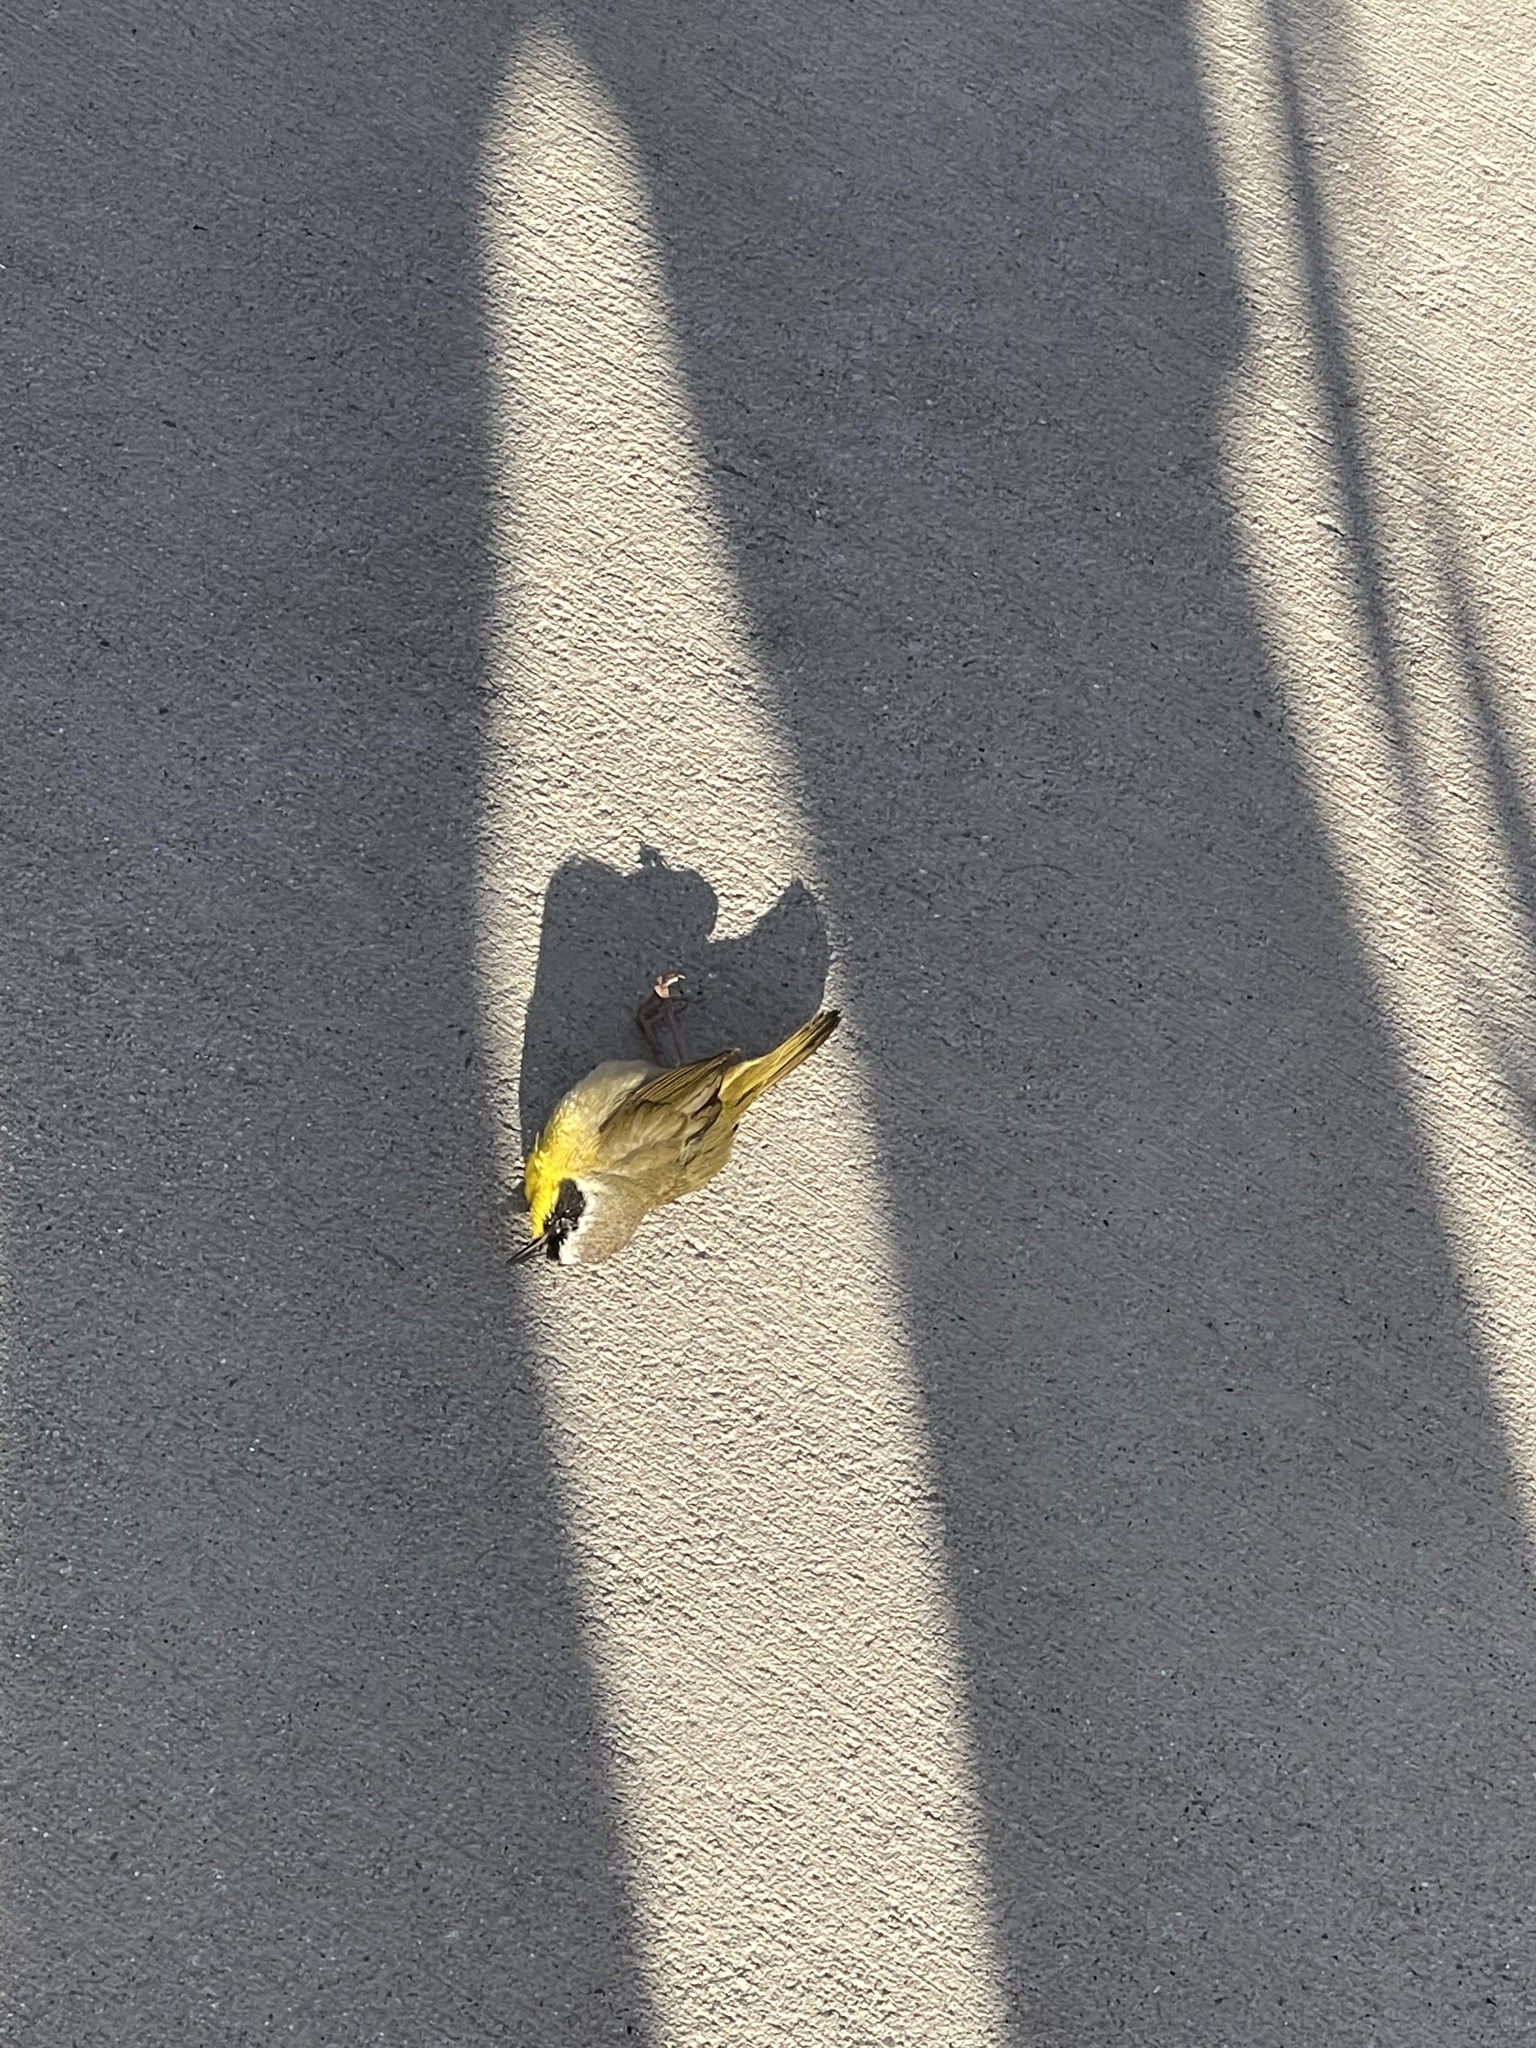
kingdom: Animalia
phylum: Chordata
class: Aves
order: Passeriformes
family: Parulidae
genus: Geothlypis
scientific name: Geothlypis trichas
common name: Common yellowthroat
